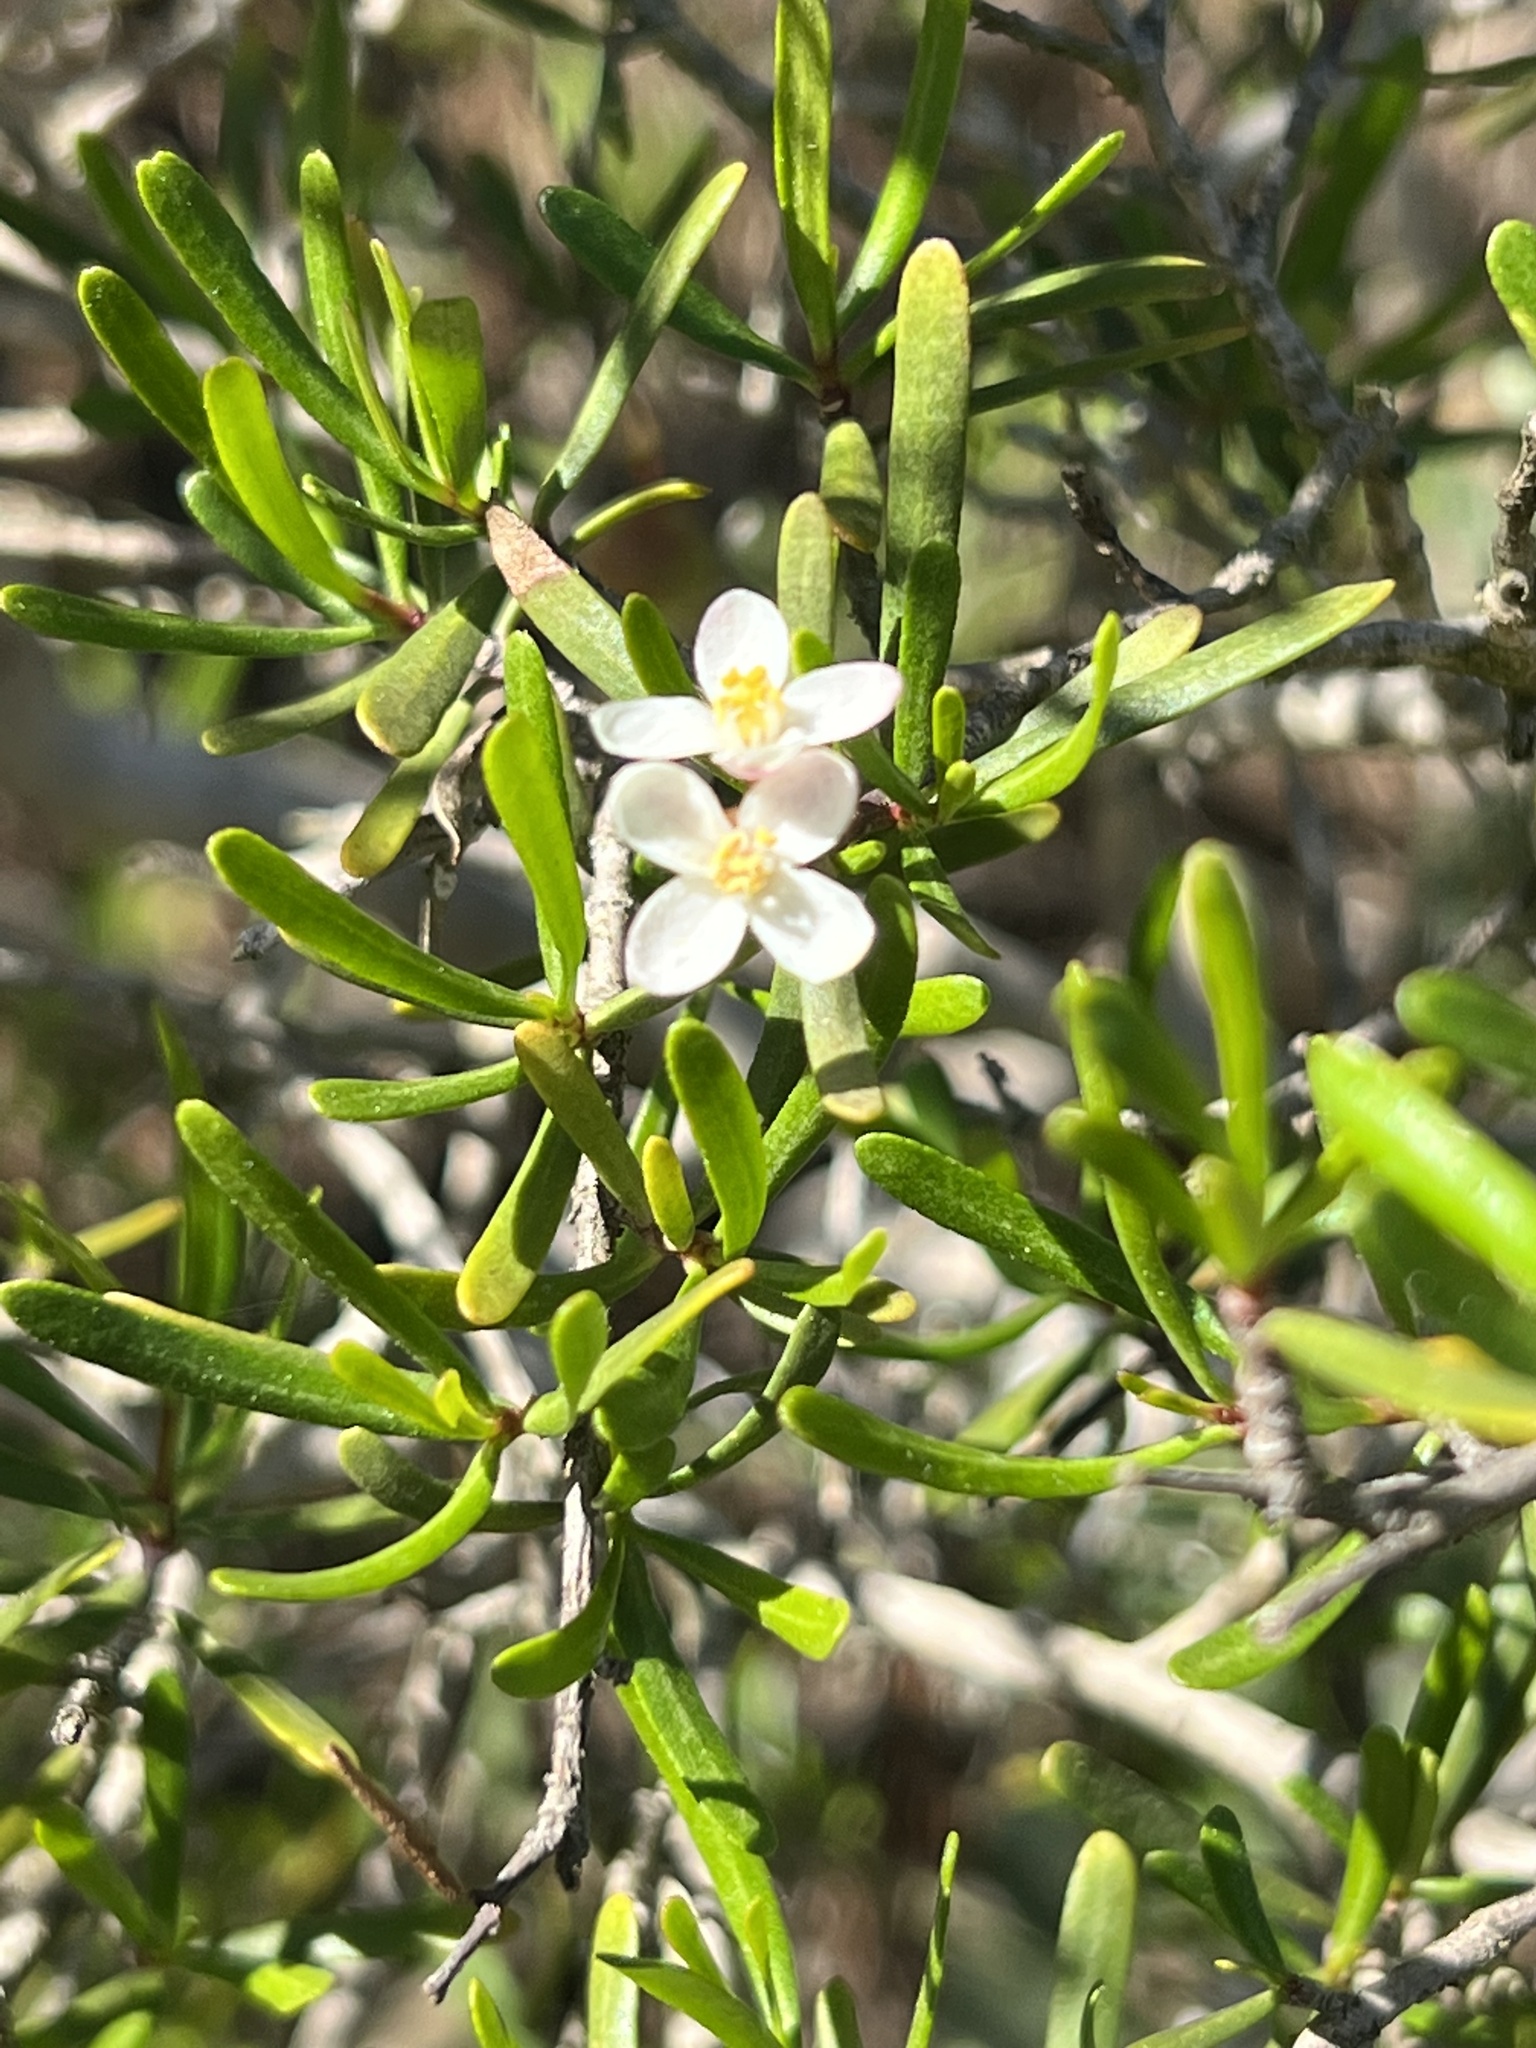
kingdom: Plantae
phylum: Tracheophyta
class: Magnoliopsida
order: Sapindales
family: Rutaceae
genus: Cneoridium
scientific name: Cneoridium dumosum
